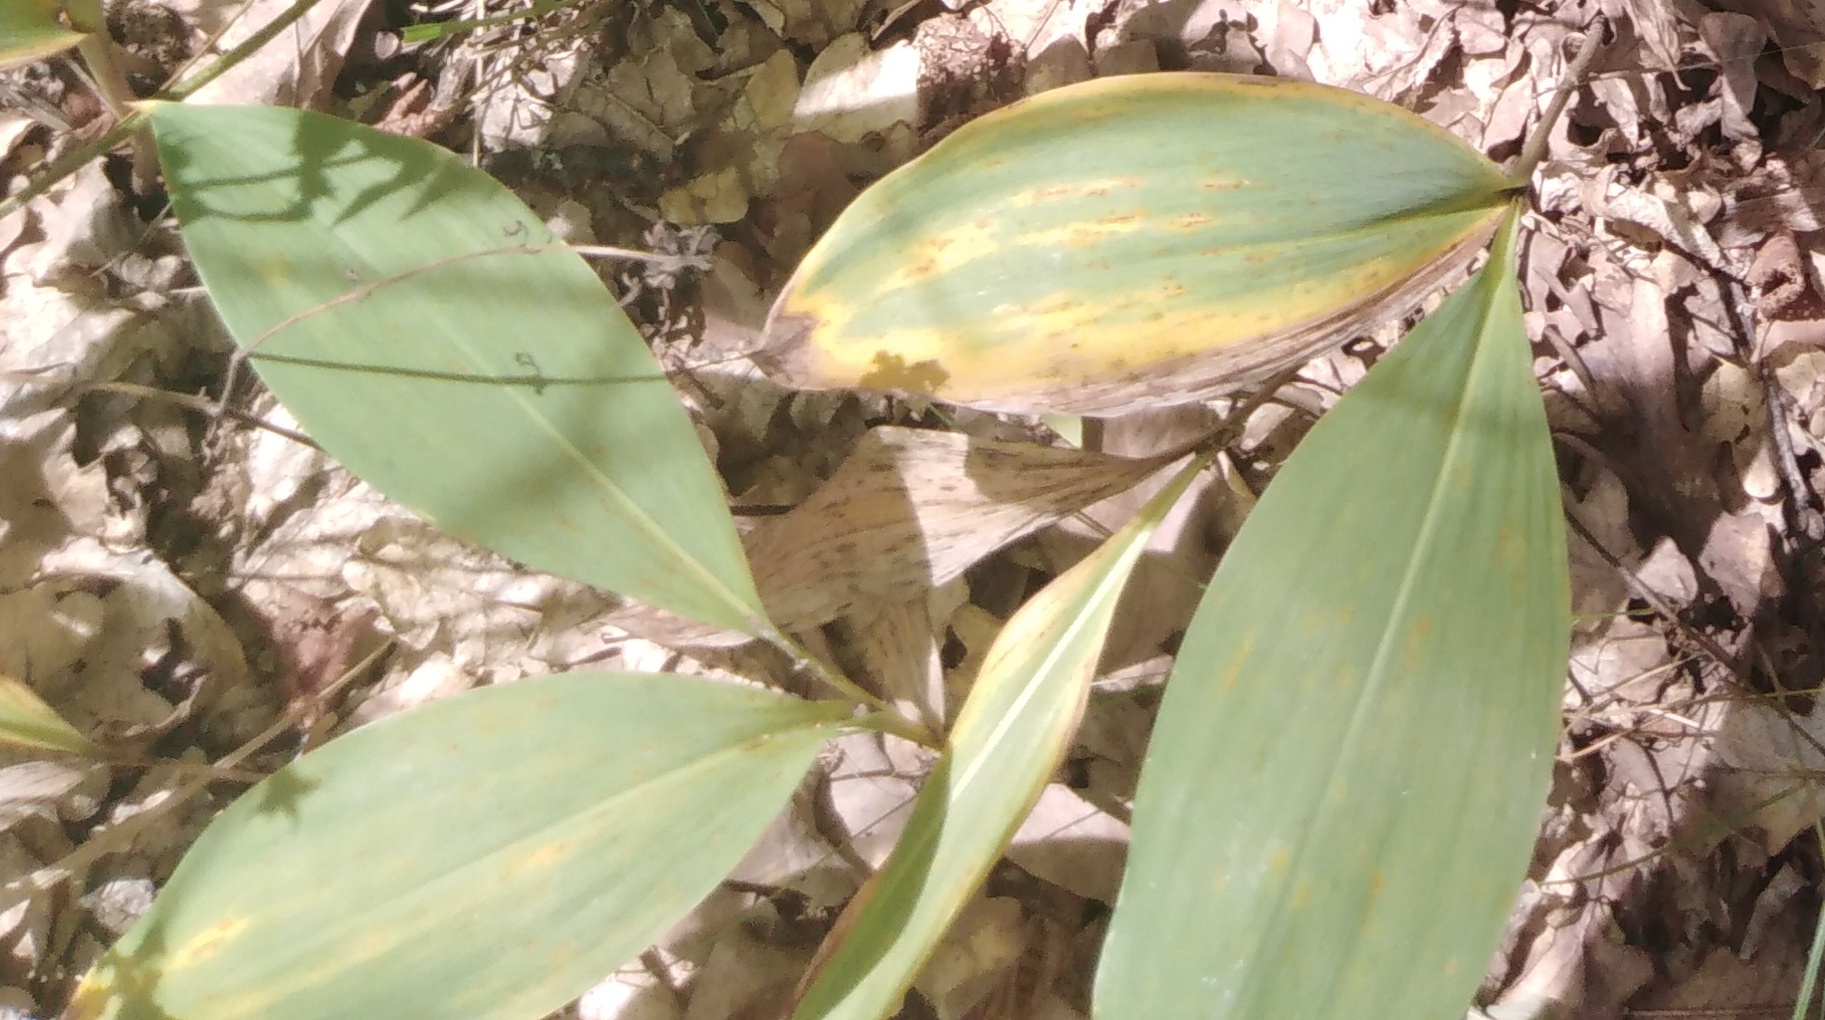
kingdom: Plantae
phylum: Tracheophyta
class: Liliopsida
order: Asparagales
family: Asparagaceae
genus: Convallaria
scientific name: Convallaria majalis
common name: Lily-of-the-valley
